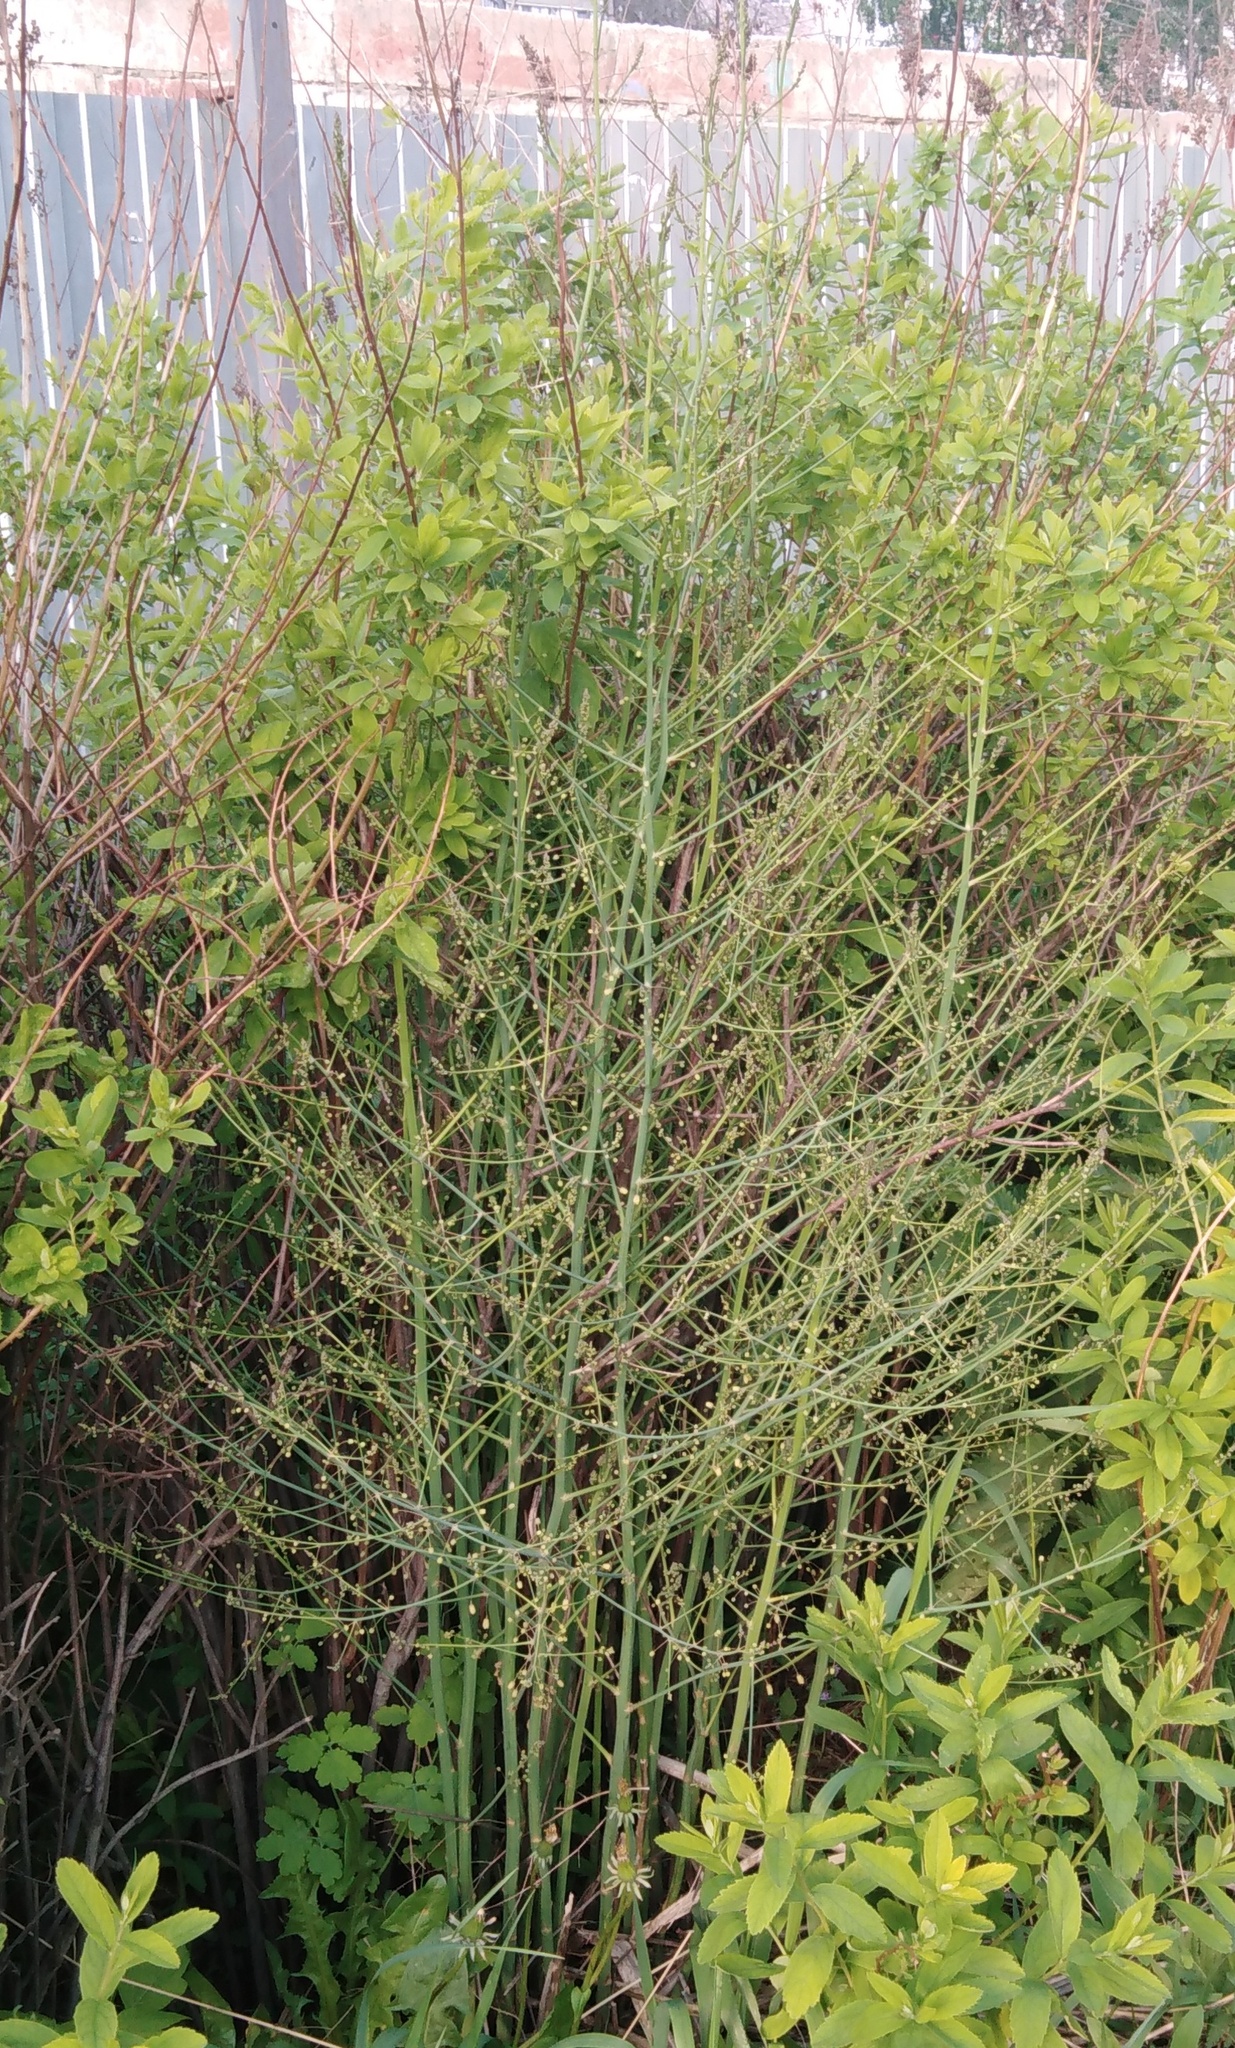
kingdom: Plantae
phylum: Tracheophyta
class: Liliopsida
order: Asparagales
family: Asparagaceae
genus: Asparagus
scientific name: Asparagus officinalis
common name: Garden asparagus
